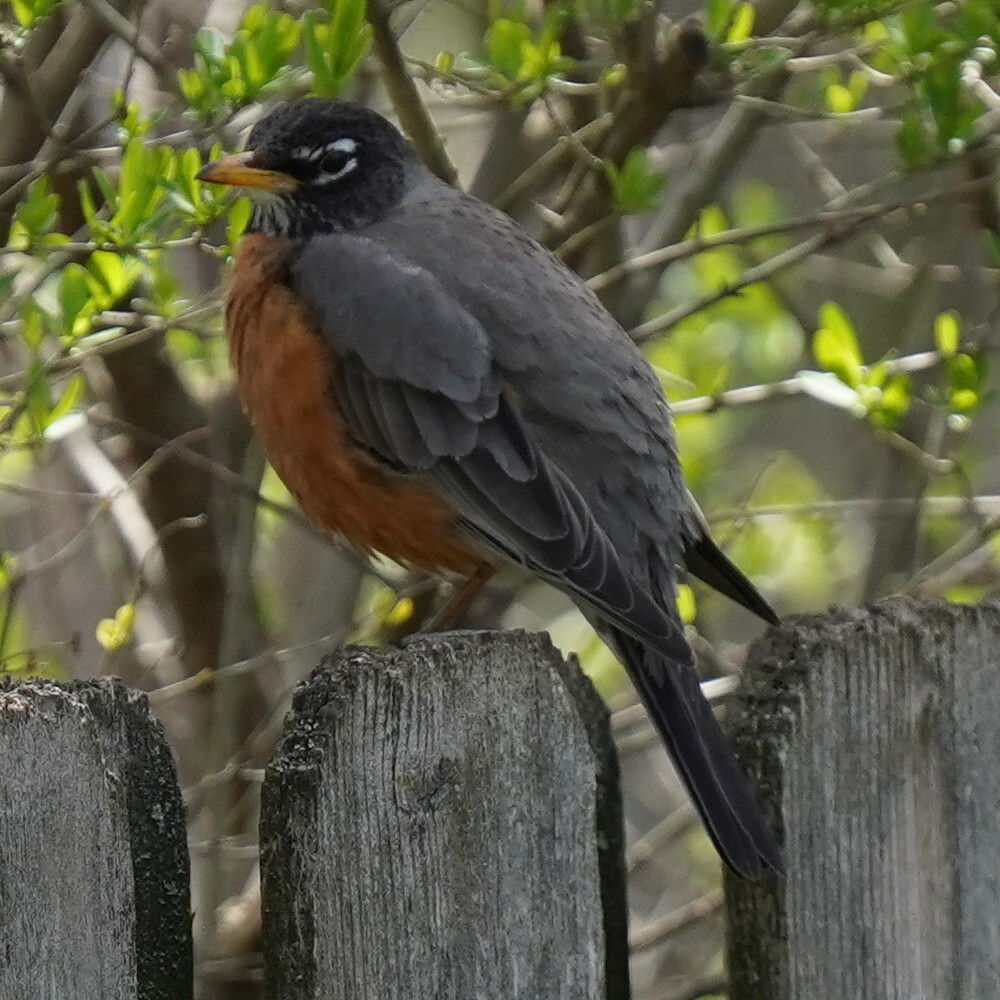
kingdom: Animalia
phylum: Chordata
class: Aves
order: Passeriformes
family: Turdidae
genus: Turdus
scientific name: Turdus migratorius
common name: American robin
